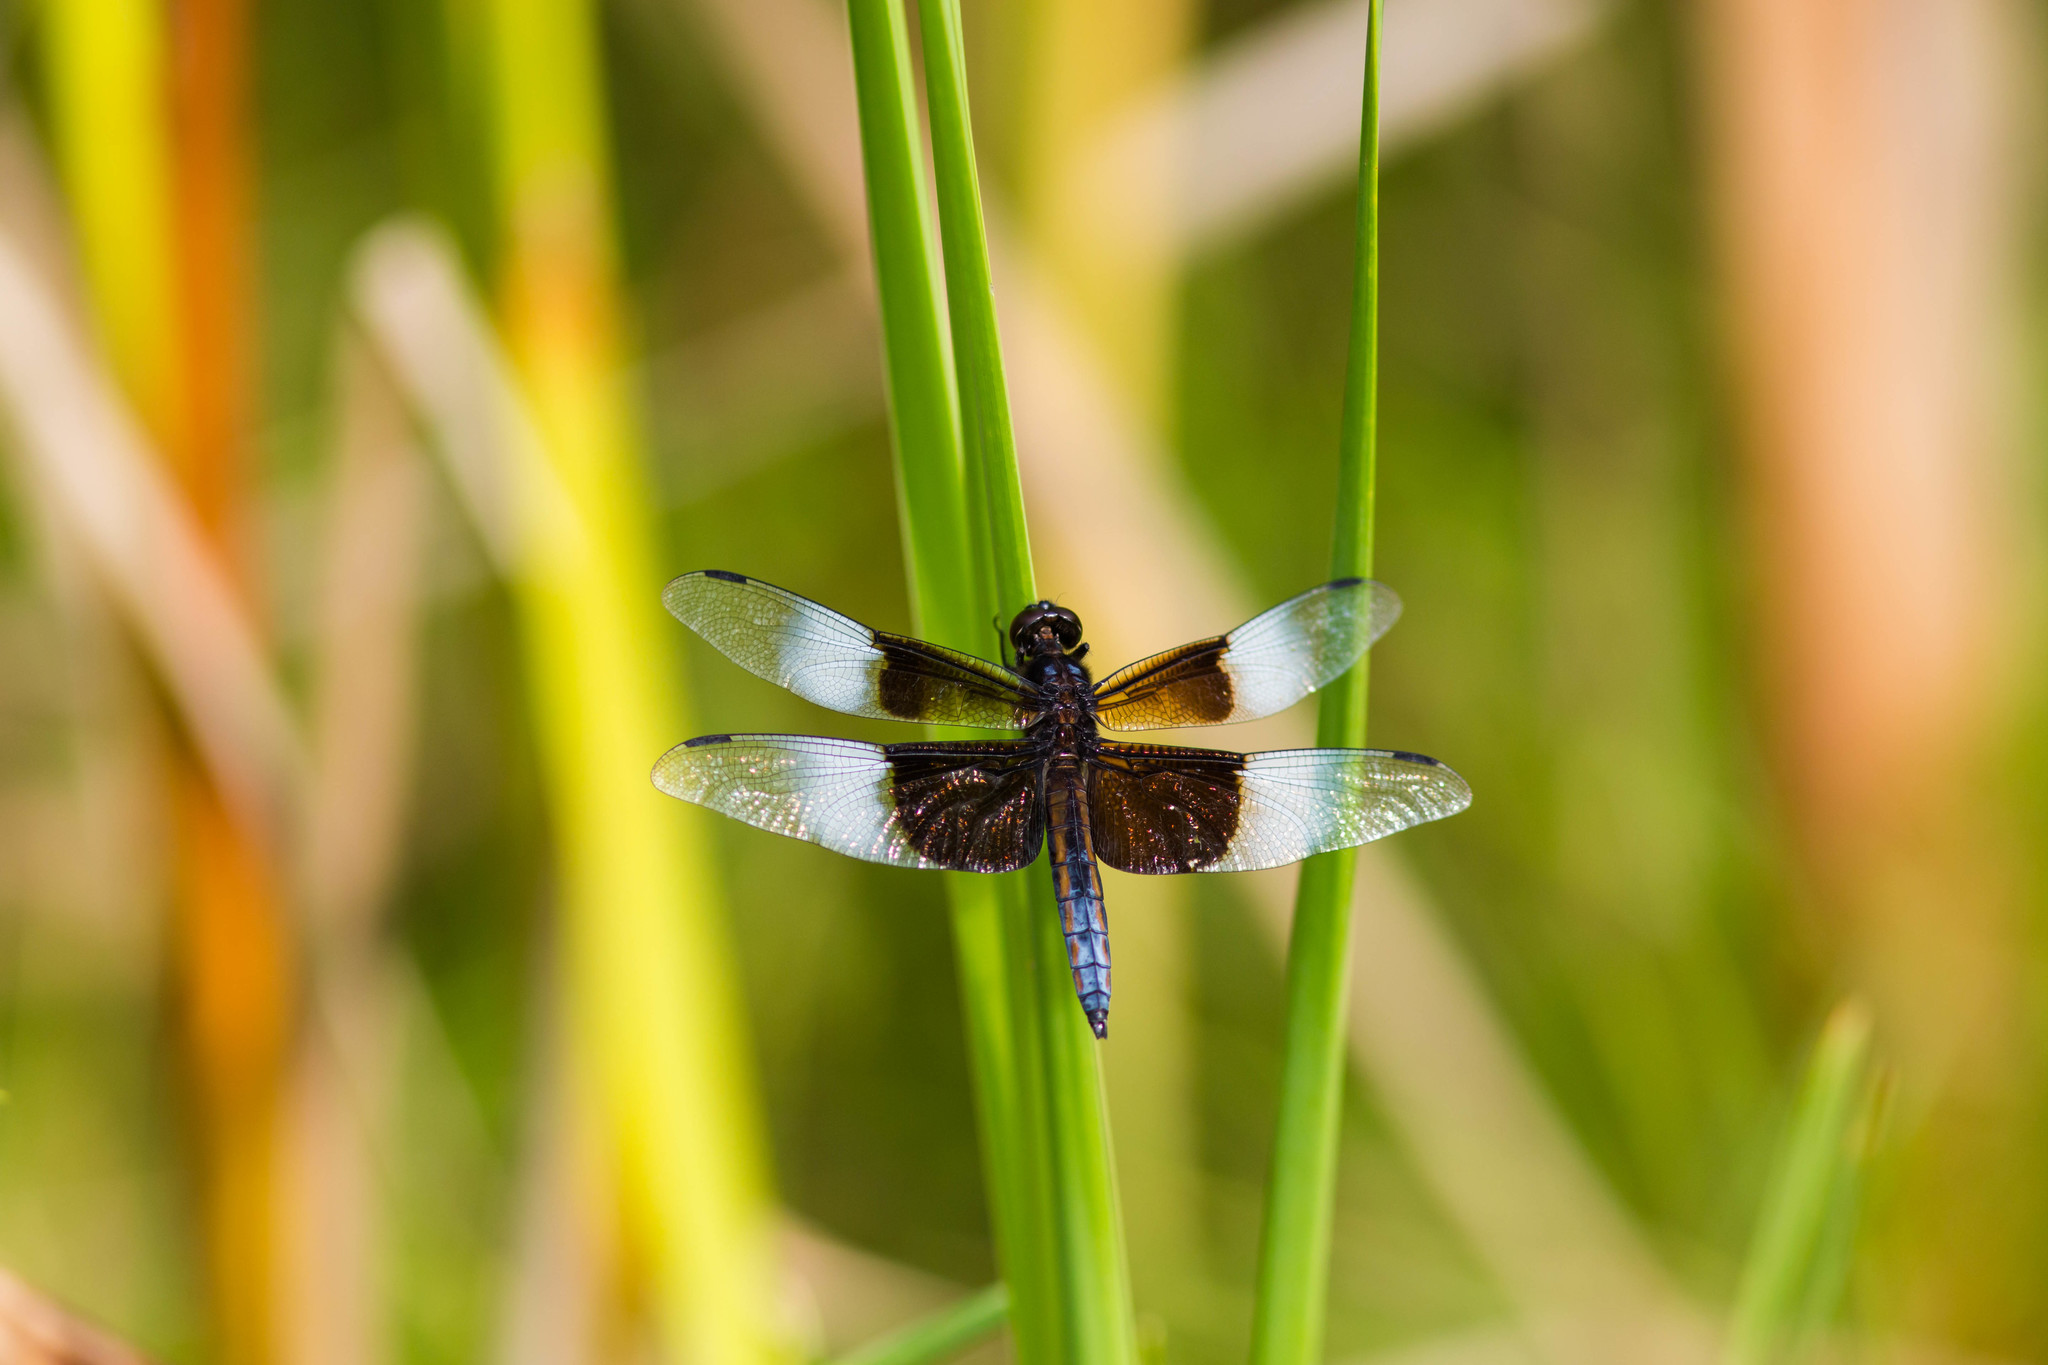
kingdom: Animalia
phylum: Arthropoda
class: Insecta
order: Odonata
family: Libellulidae
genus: Libellula
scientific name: Libellula luctuosa
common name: Widow skimmer
